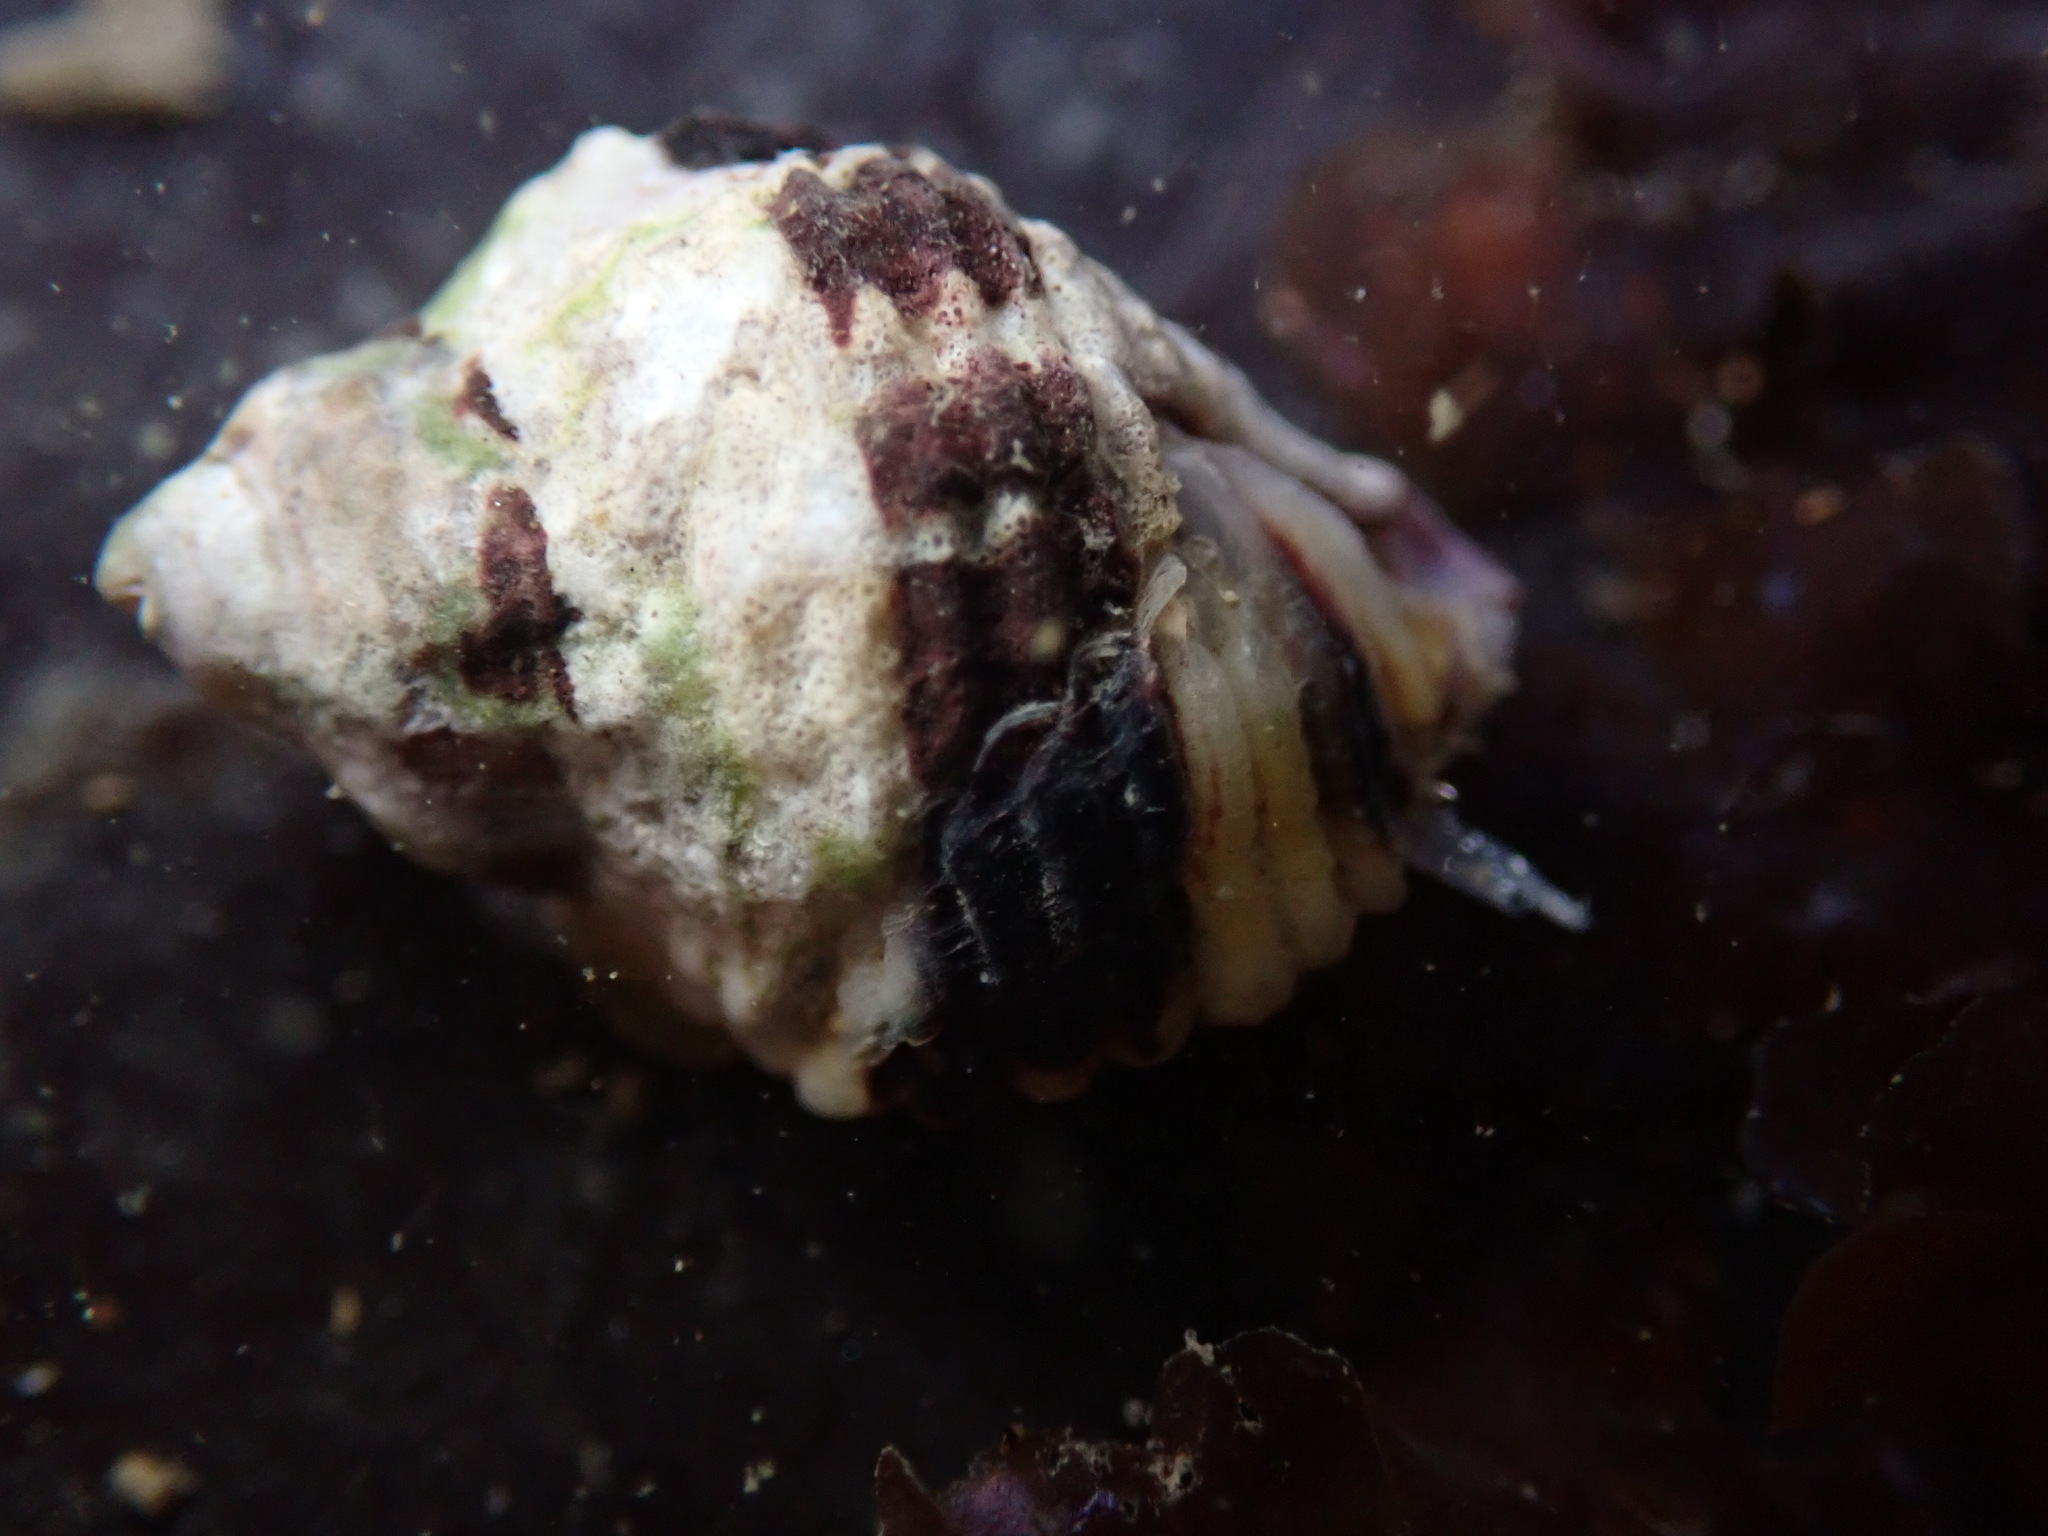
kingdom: Animalia
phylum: Mollusca
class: Gastropoda
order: Neogastropoda
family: Muricidae
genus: Paciocinebrina
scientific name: Paciocinebrina circumtexta
